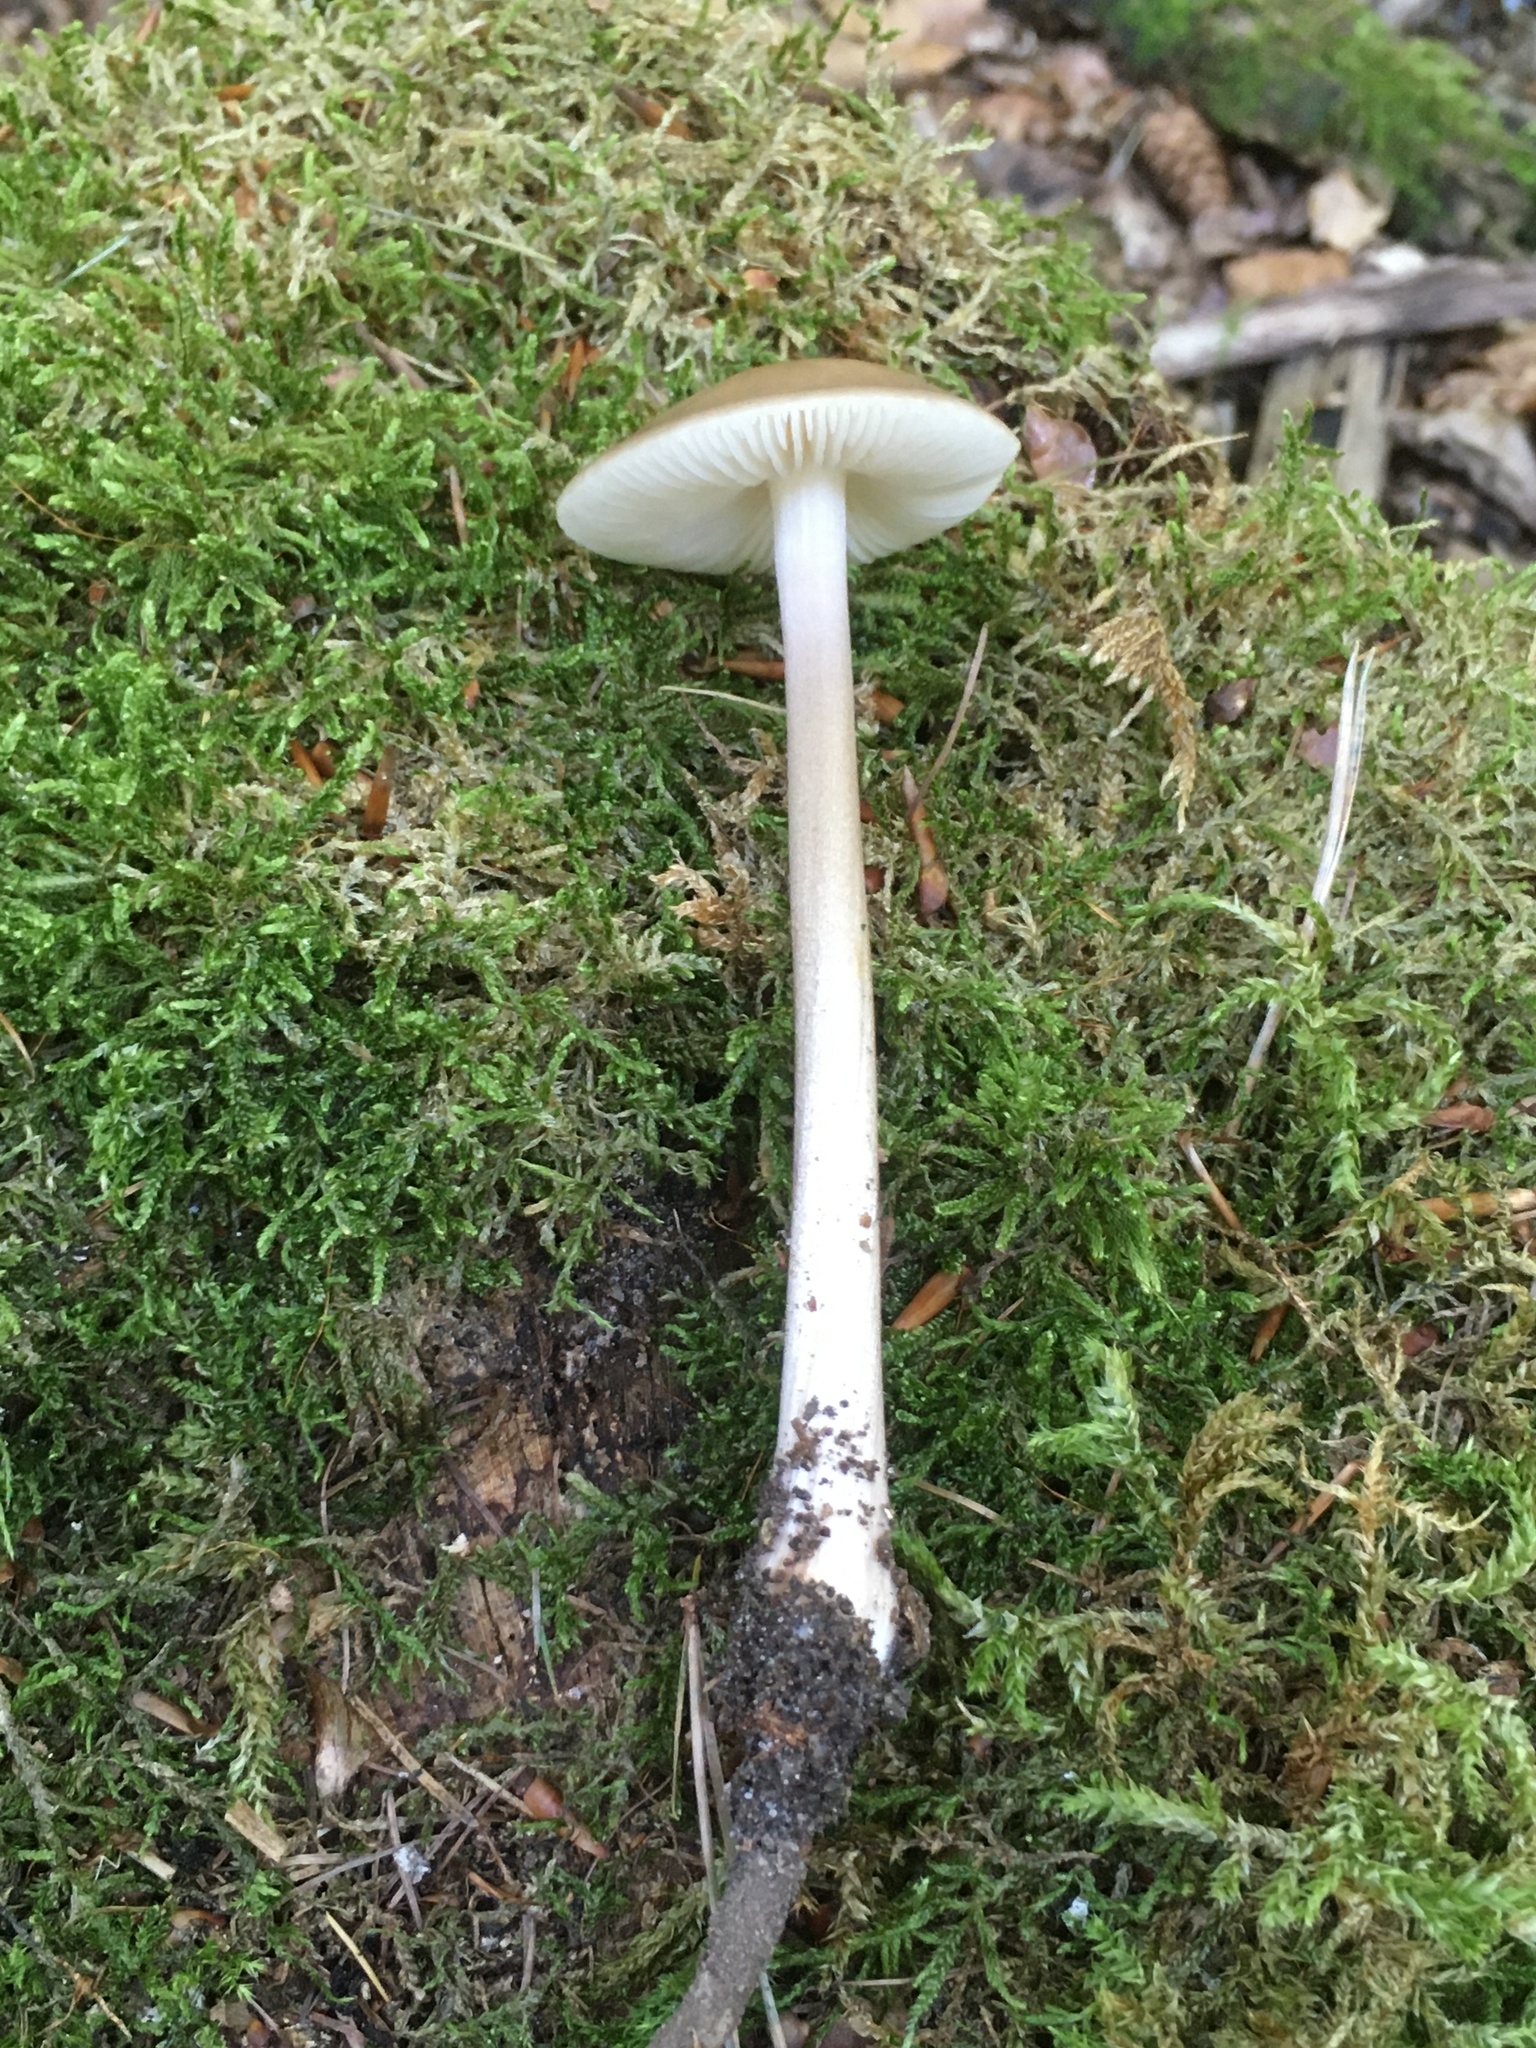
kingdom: Fungi
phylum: Basidiomycota
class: Agaricomycetes
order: Agaricales
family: Physalacriaceae
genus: Hymenopellis
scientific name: Hymenopellis radicata
